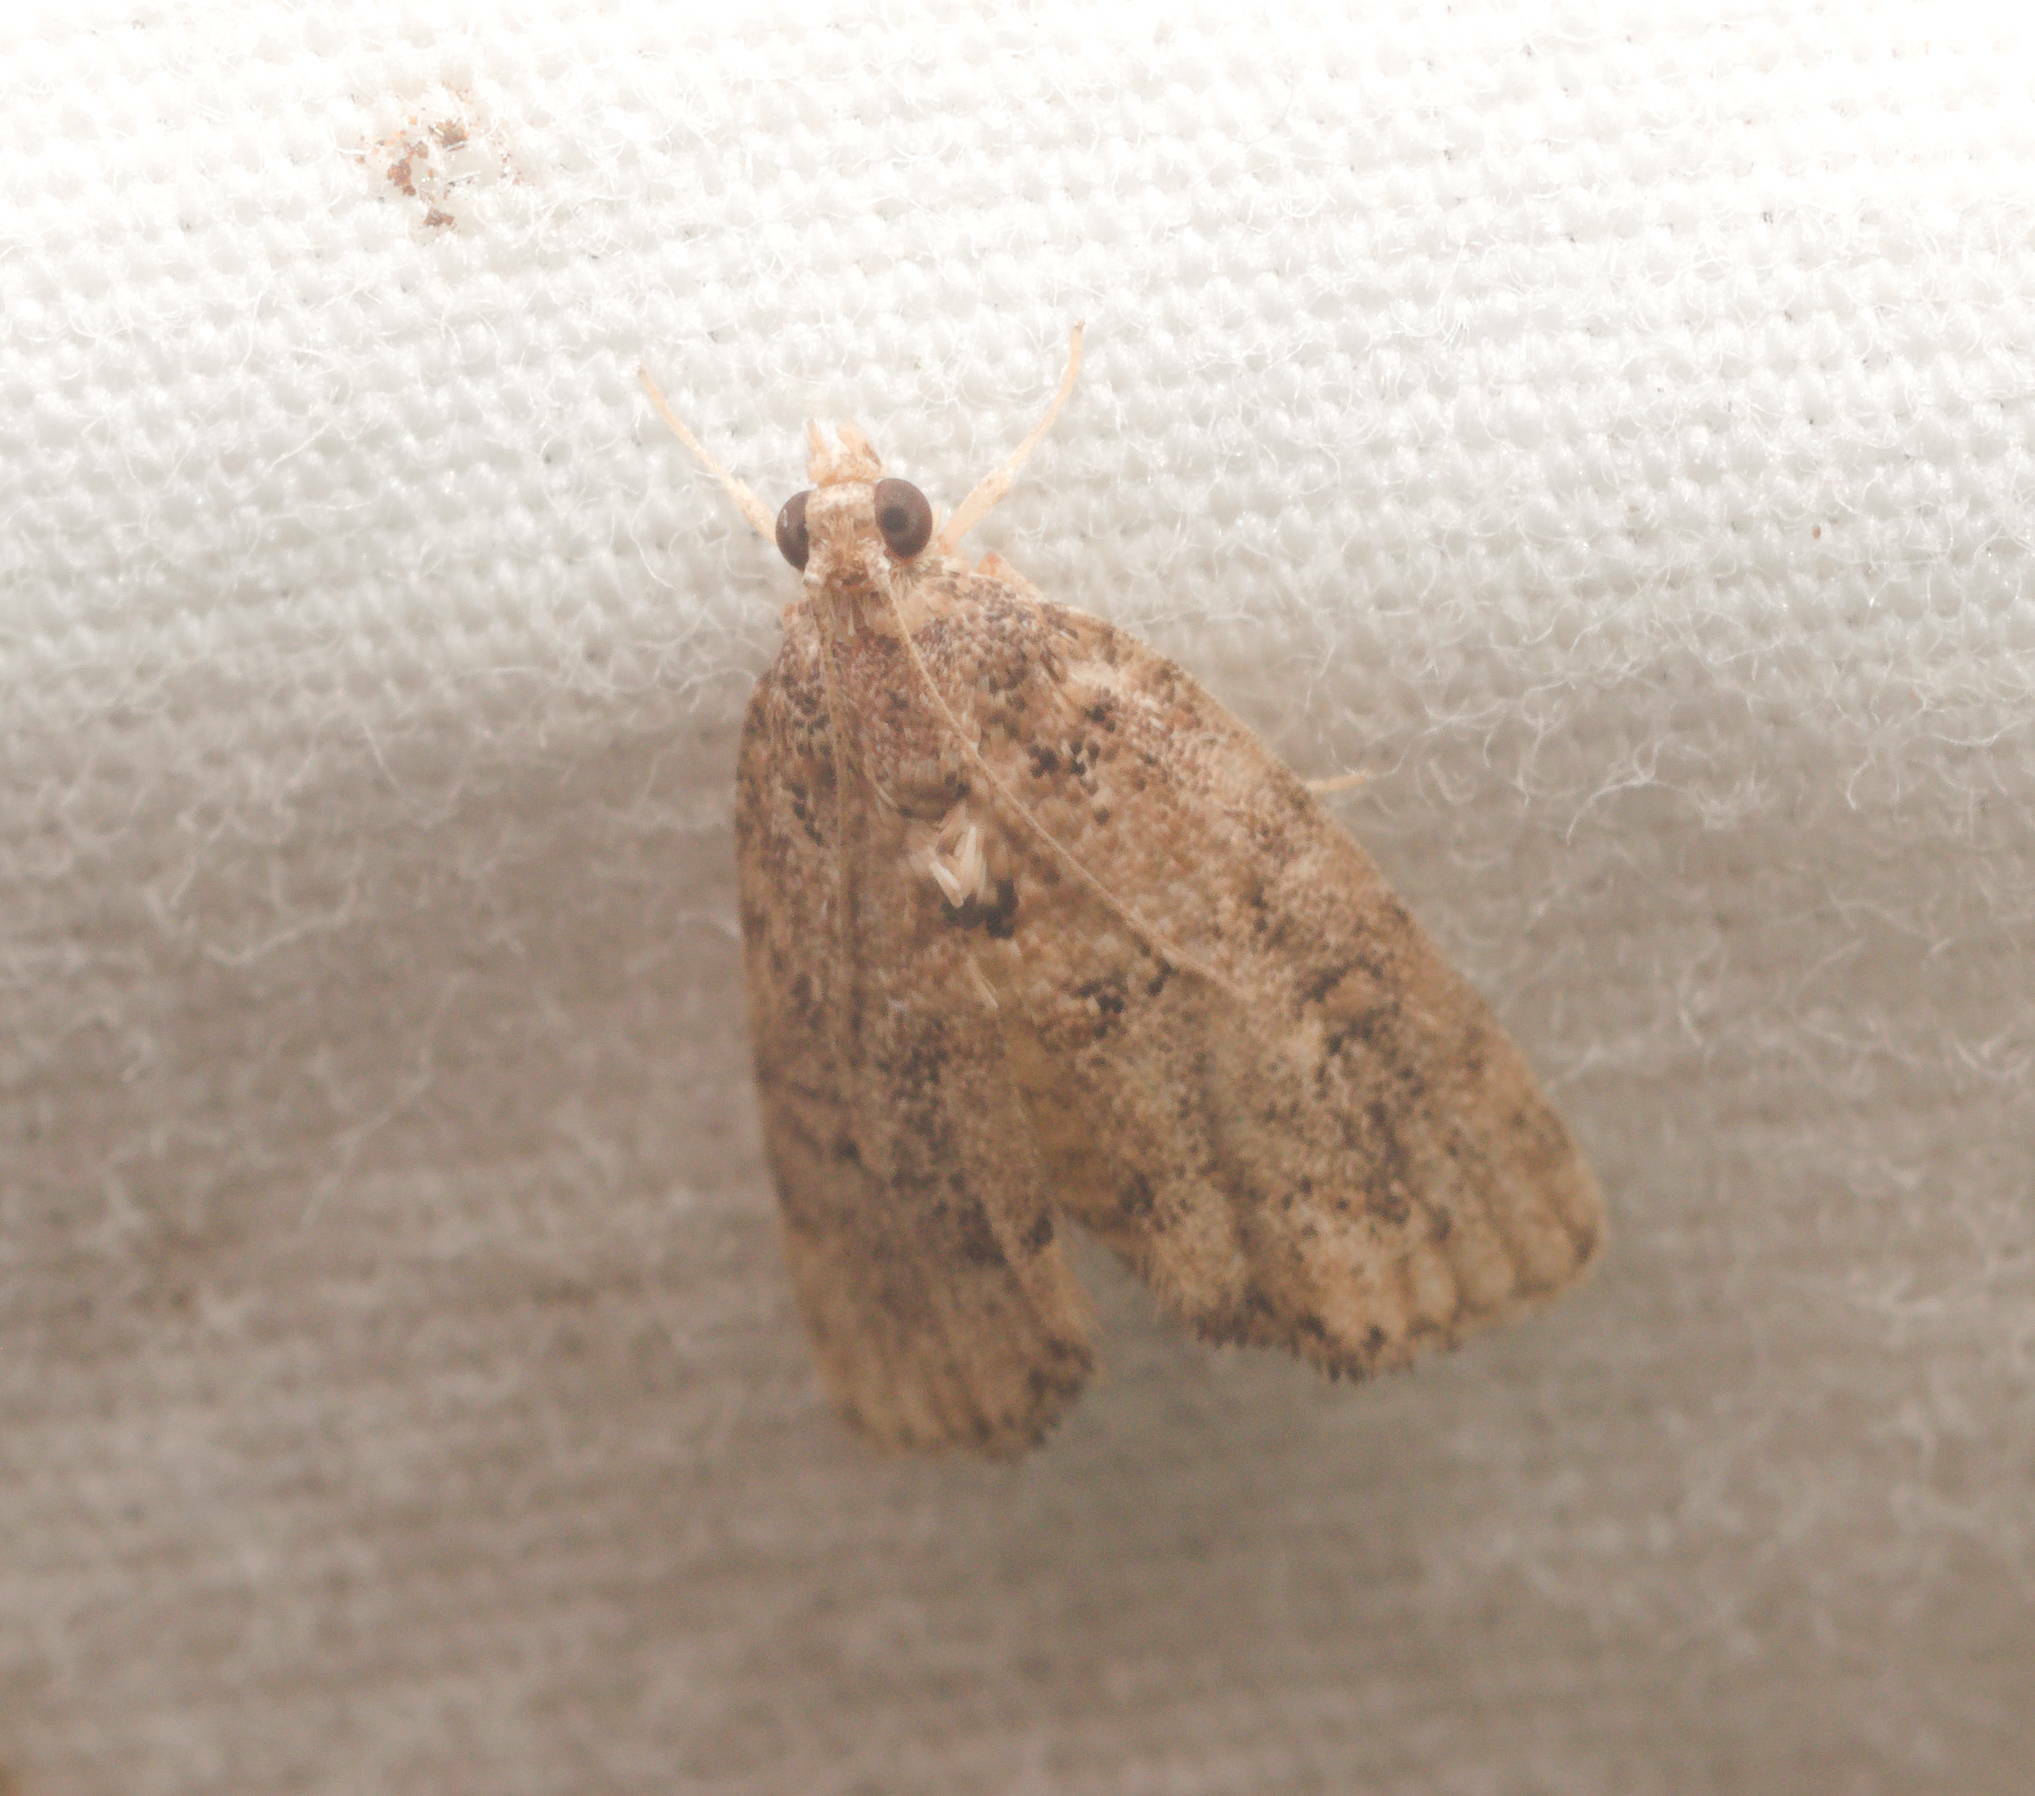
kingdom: Animalia
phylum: Arthropoda
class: Insecta
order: Lepidoptera
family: Crambidae
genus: Mestolobes
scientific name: Mestolobes abnormis
